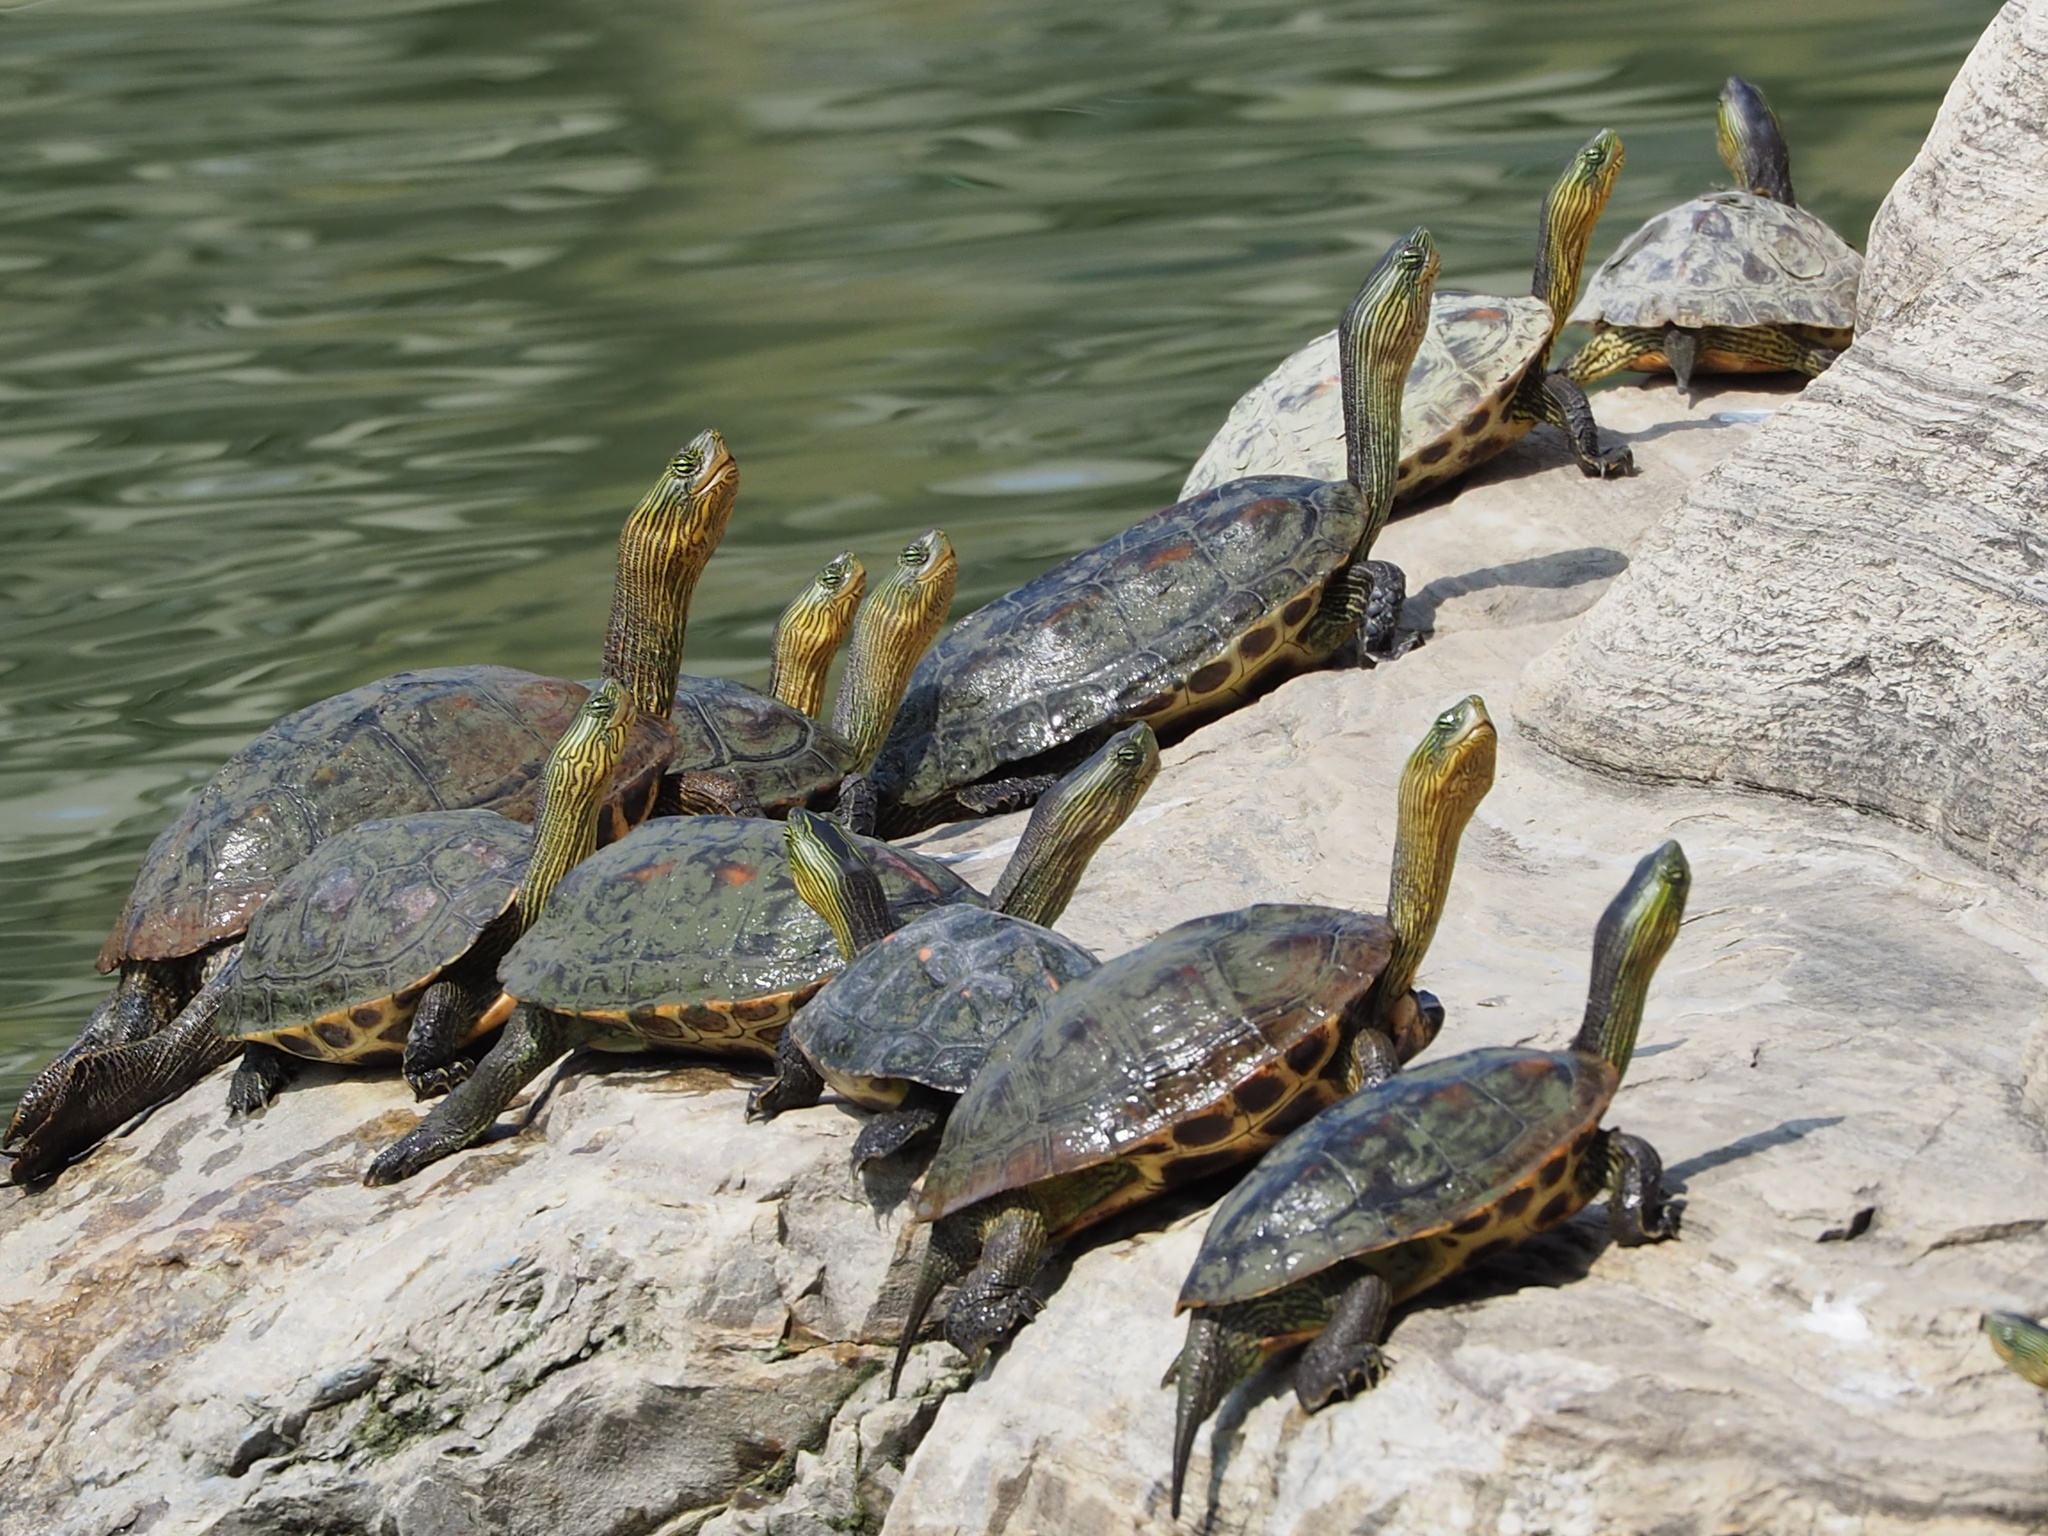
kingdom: Animalia
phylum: Chordata
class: Testudines
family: Geoemydidae
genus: Mauremys
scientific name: Mauremys sinensis
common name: Chinese stripe-necked turtle
